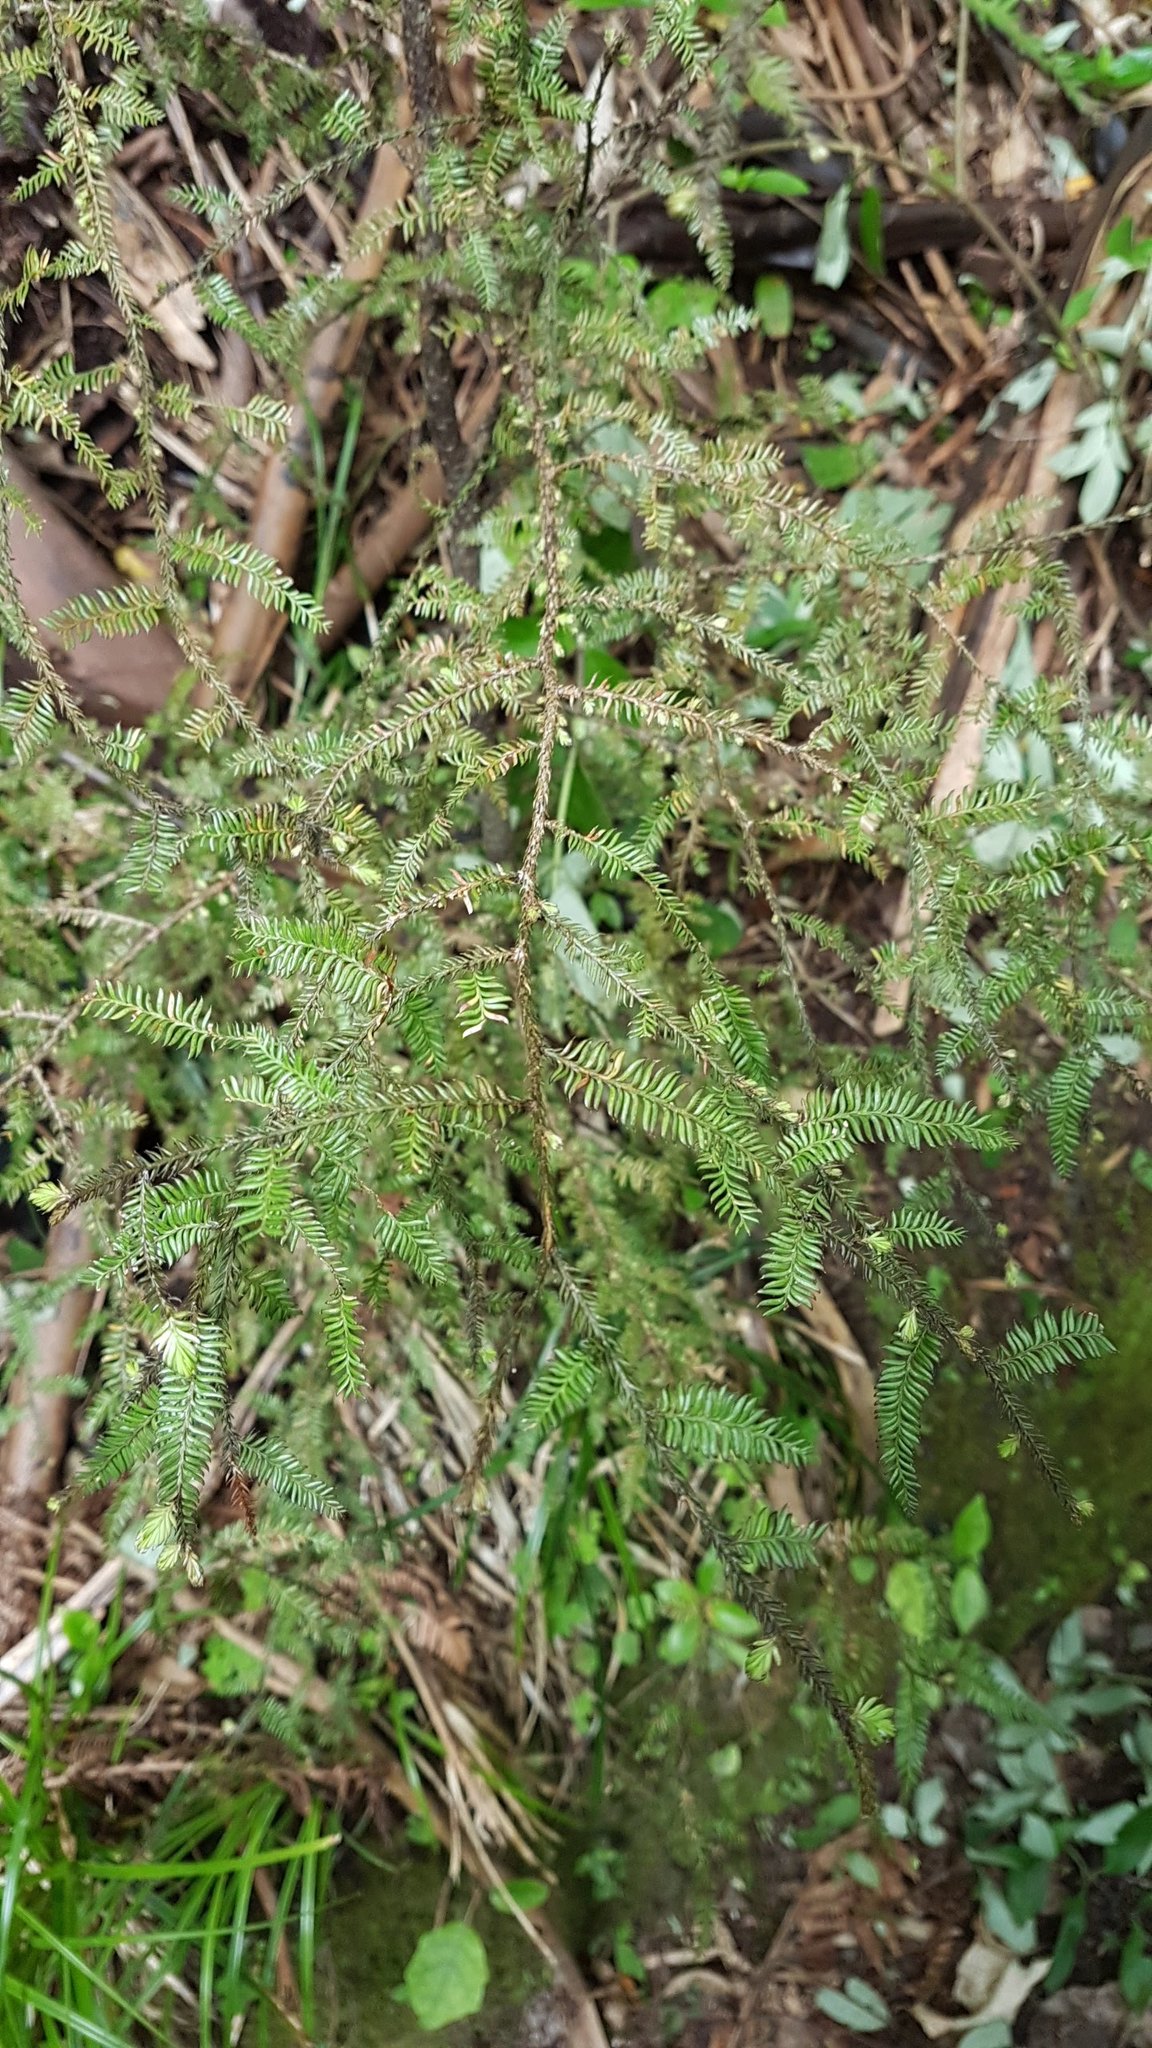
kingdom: Plantae
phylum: Tracheophyta
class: Pinopsida
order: Pinales
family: Podocarpaceae
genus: Dacrycarpus
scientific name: Dacrycarpus dacrydioides
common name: White pine
